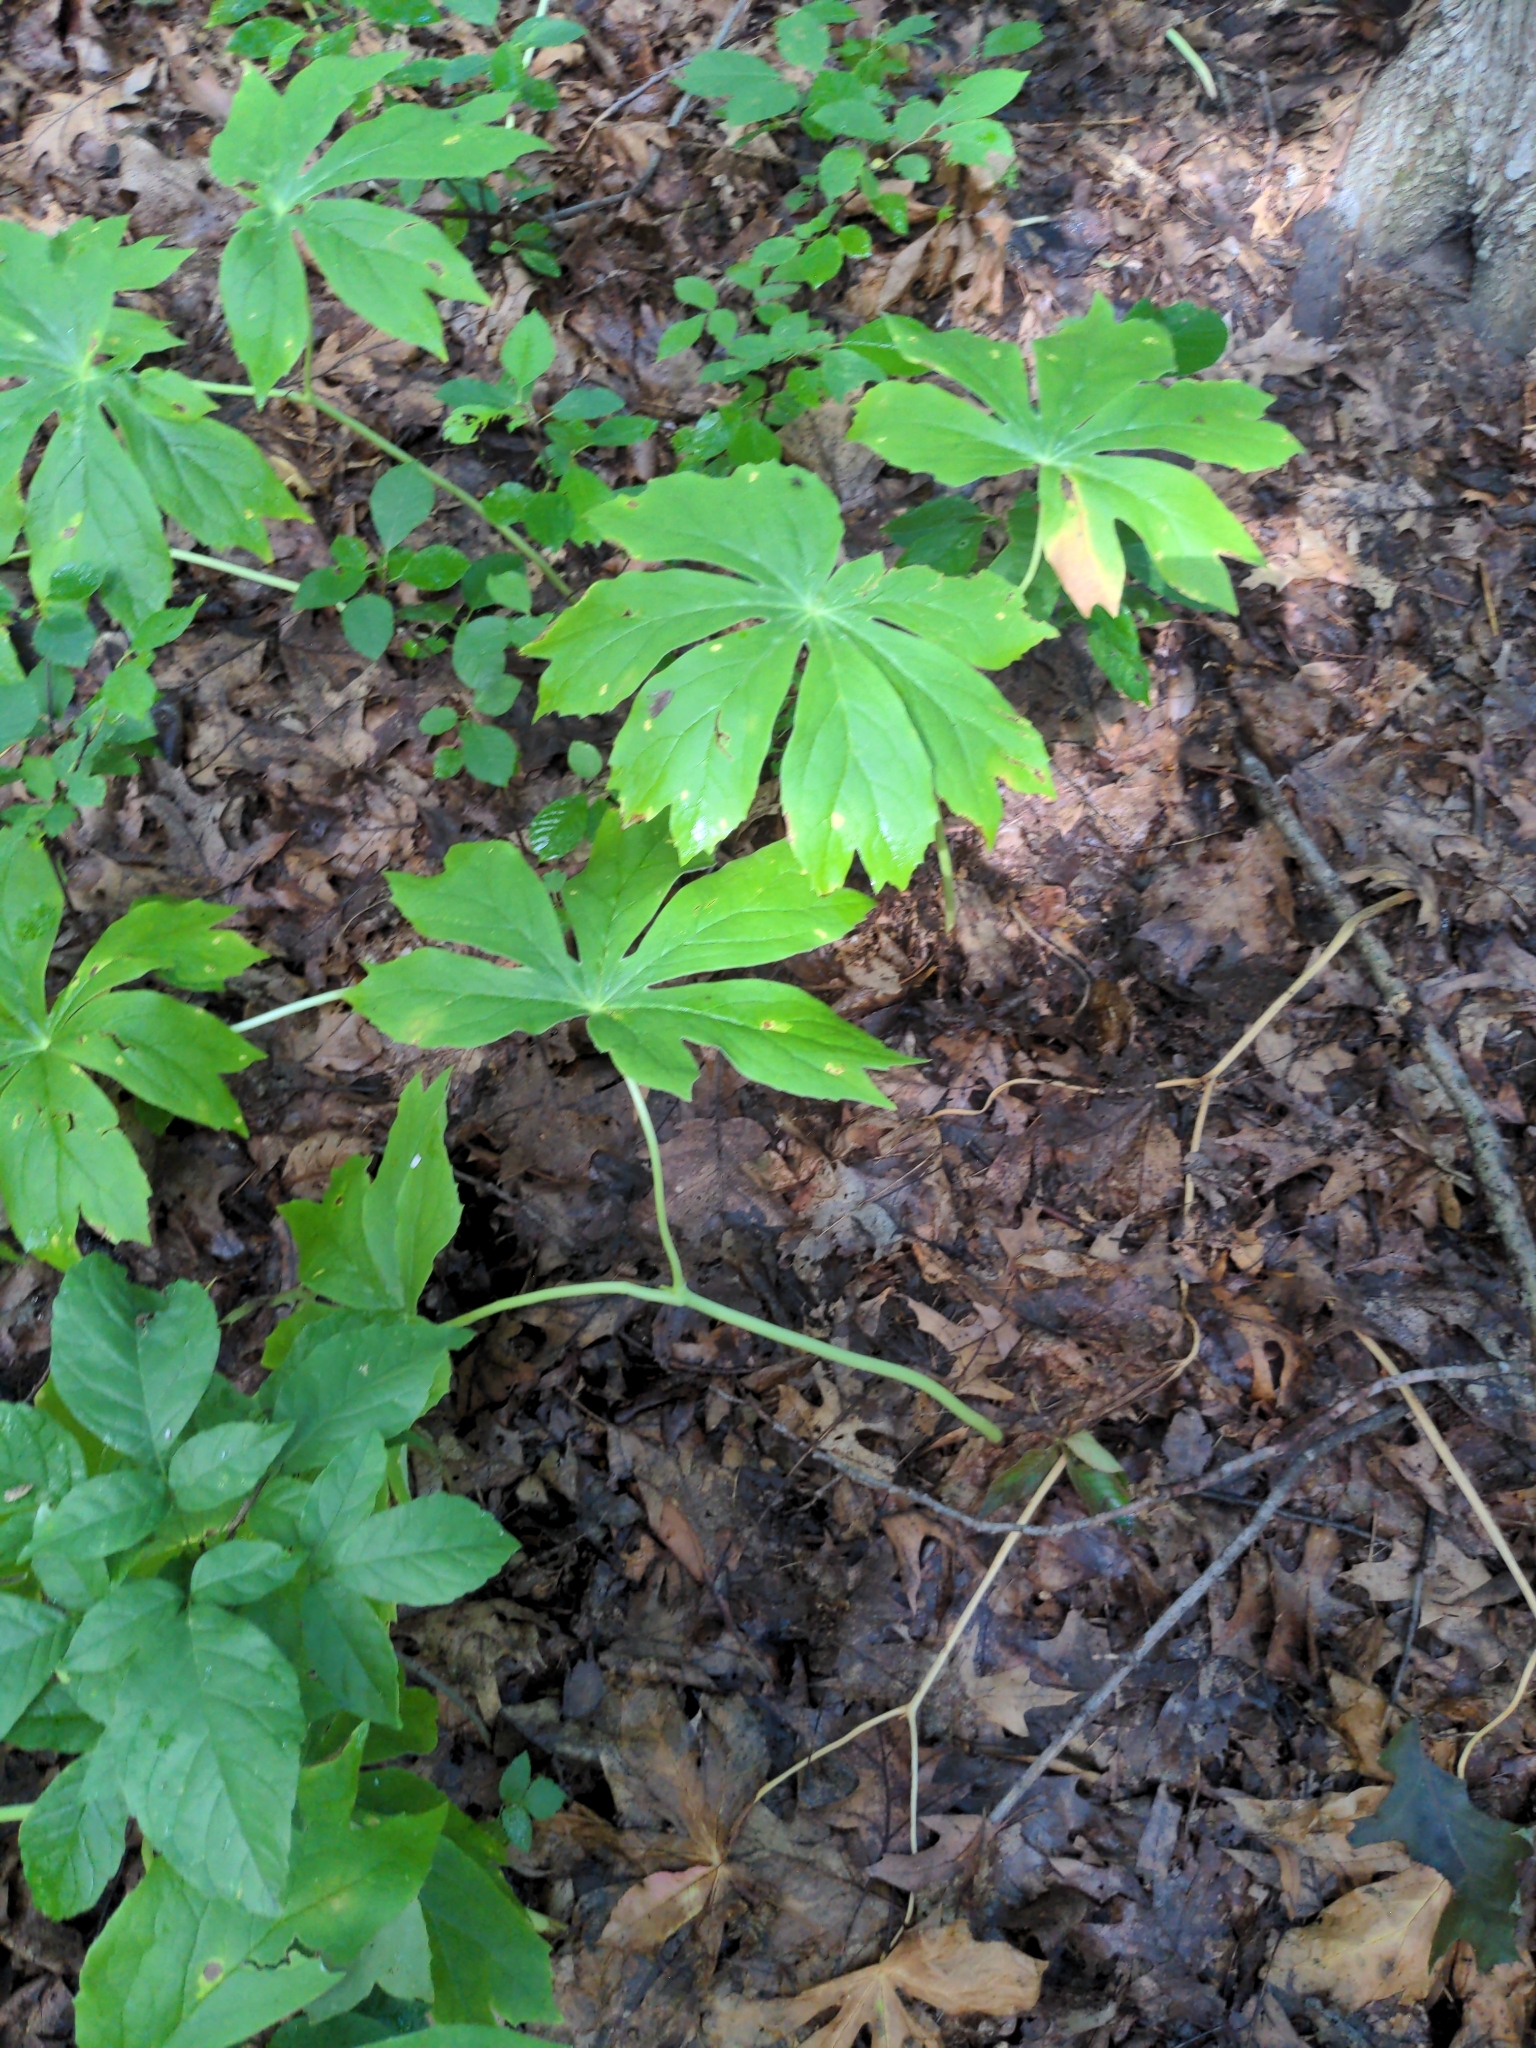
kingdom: Plantae
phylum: Tracheophyta
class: Magnoliopsida
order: Ranunculales
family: Berberidaceae
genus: Podophyllum
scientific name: Podophyllum peltatum
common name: Wild mandrake
